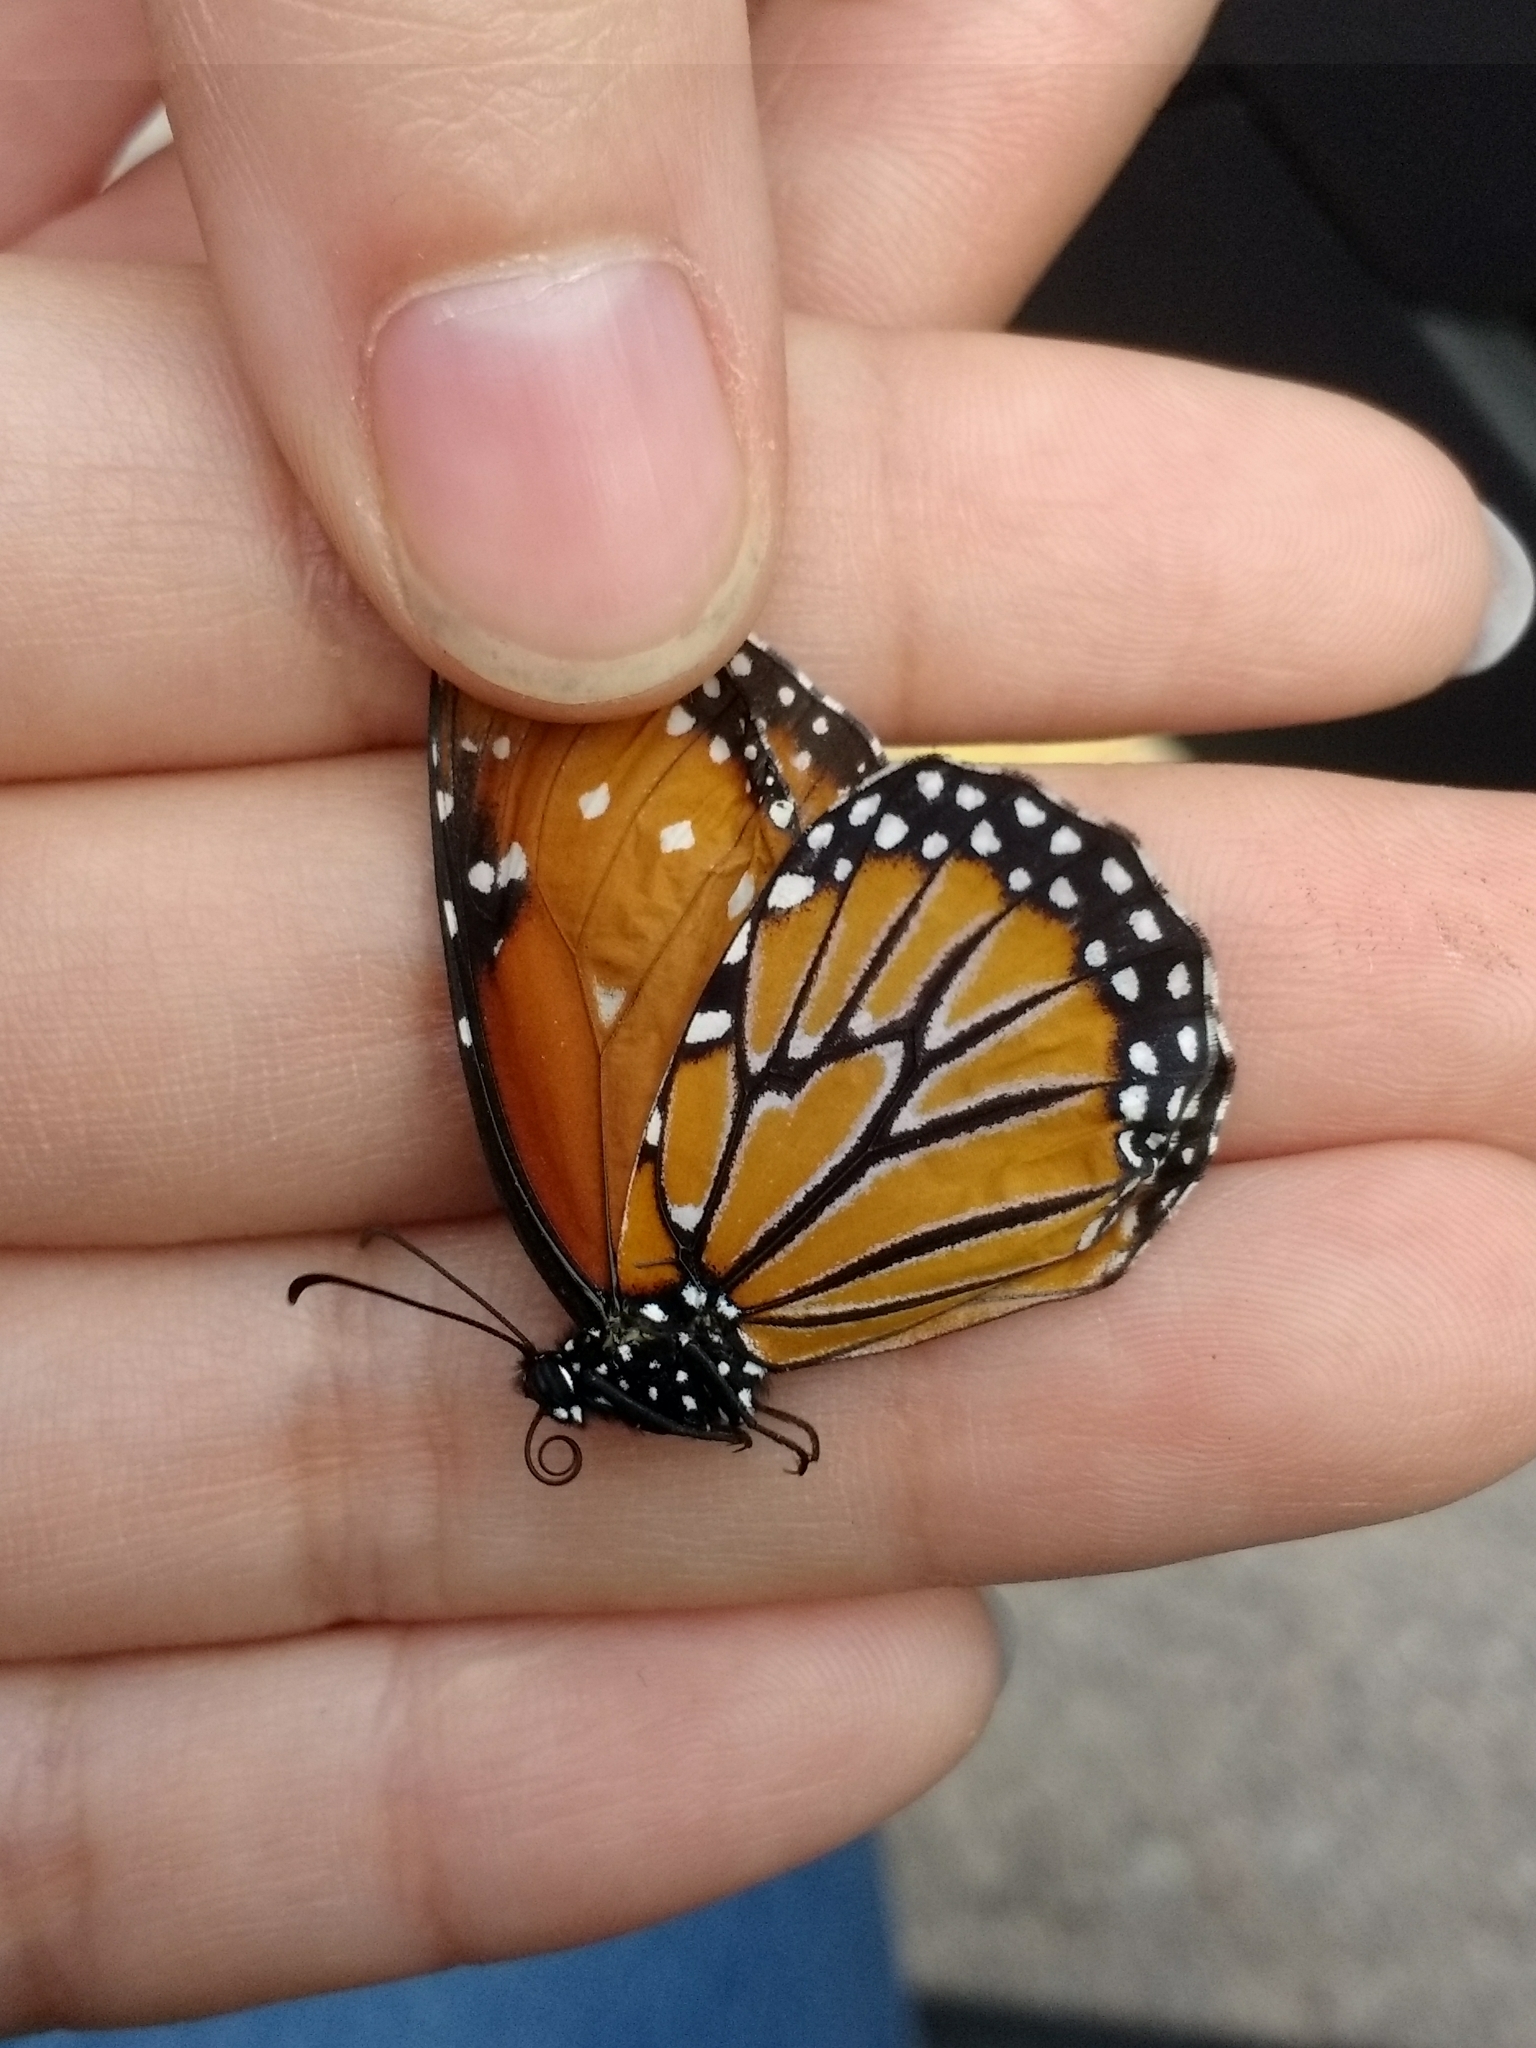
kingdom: Animalia
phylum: Arthropoda
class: Insecta
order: Lepidoptera
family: Nymphalidae
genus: Danaus
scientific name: Danaus gilippus
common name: Queen
